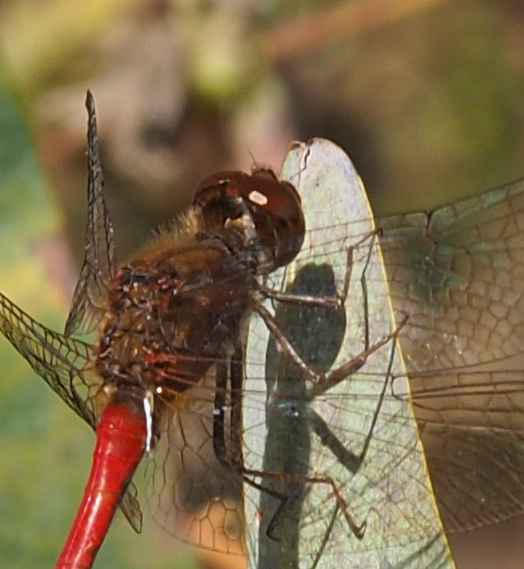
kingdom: Animalia
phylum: Arthropoda
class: Insecta
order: Odonata
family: Libellulidae
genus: Sympetrum
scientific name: Sympetrum vicinum
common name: Autumn meadowhawk
